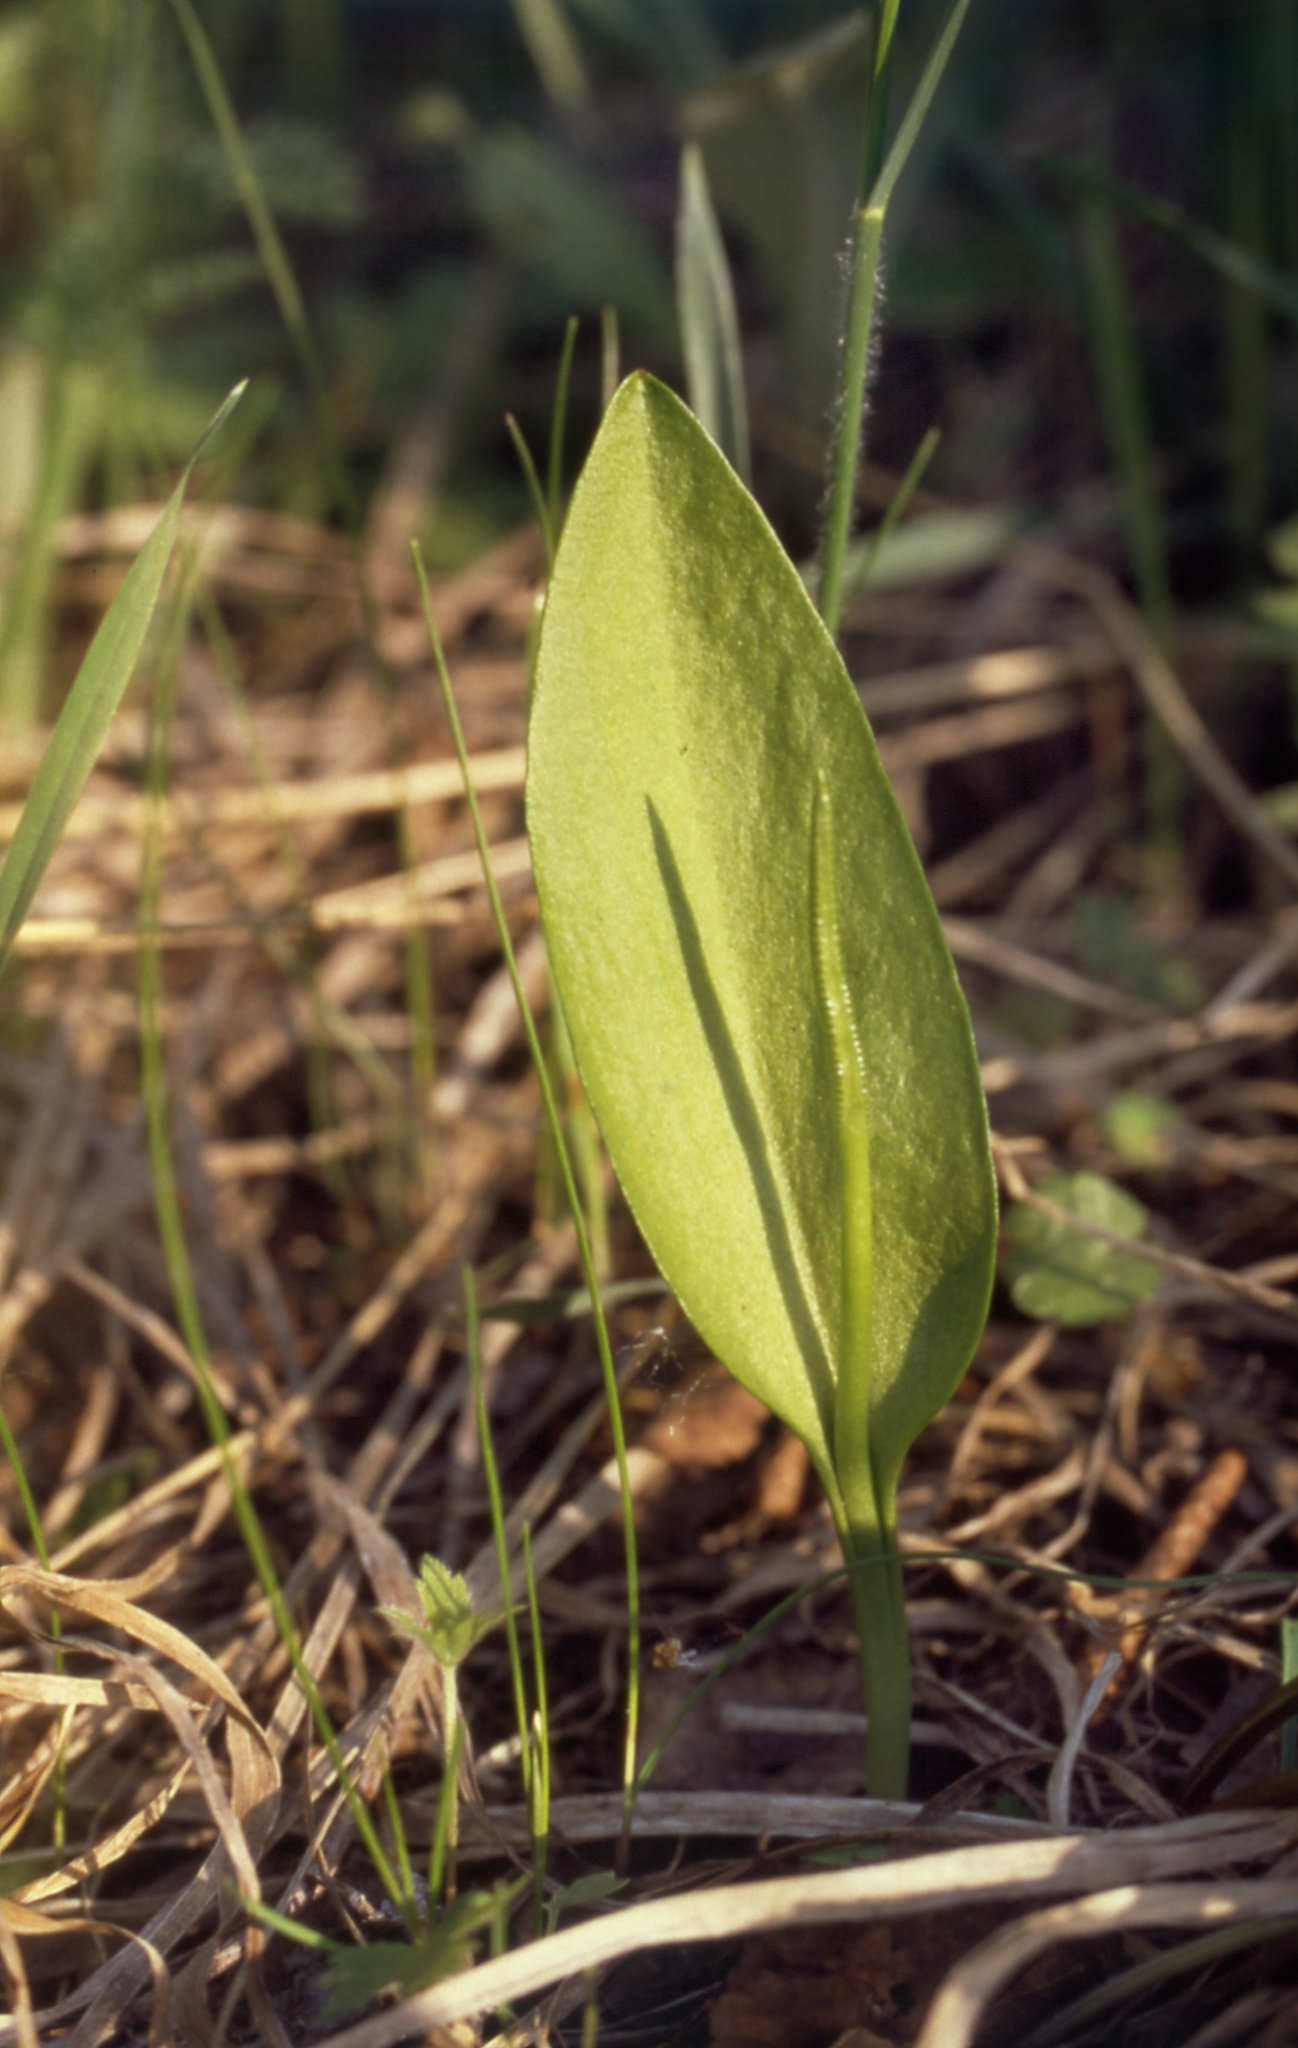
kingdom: Plantae
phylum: Tracheophyta
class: Polypodiopsida
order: Ophioglossales
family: Ophioglossaceae
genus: Ophioglossum
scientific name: Ophioglossum vulgatum
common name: Adder's-tongue
